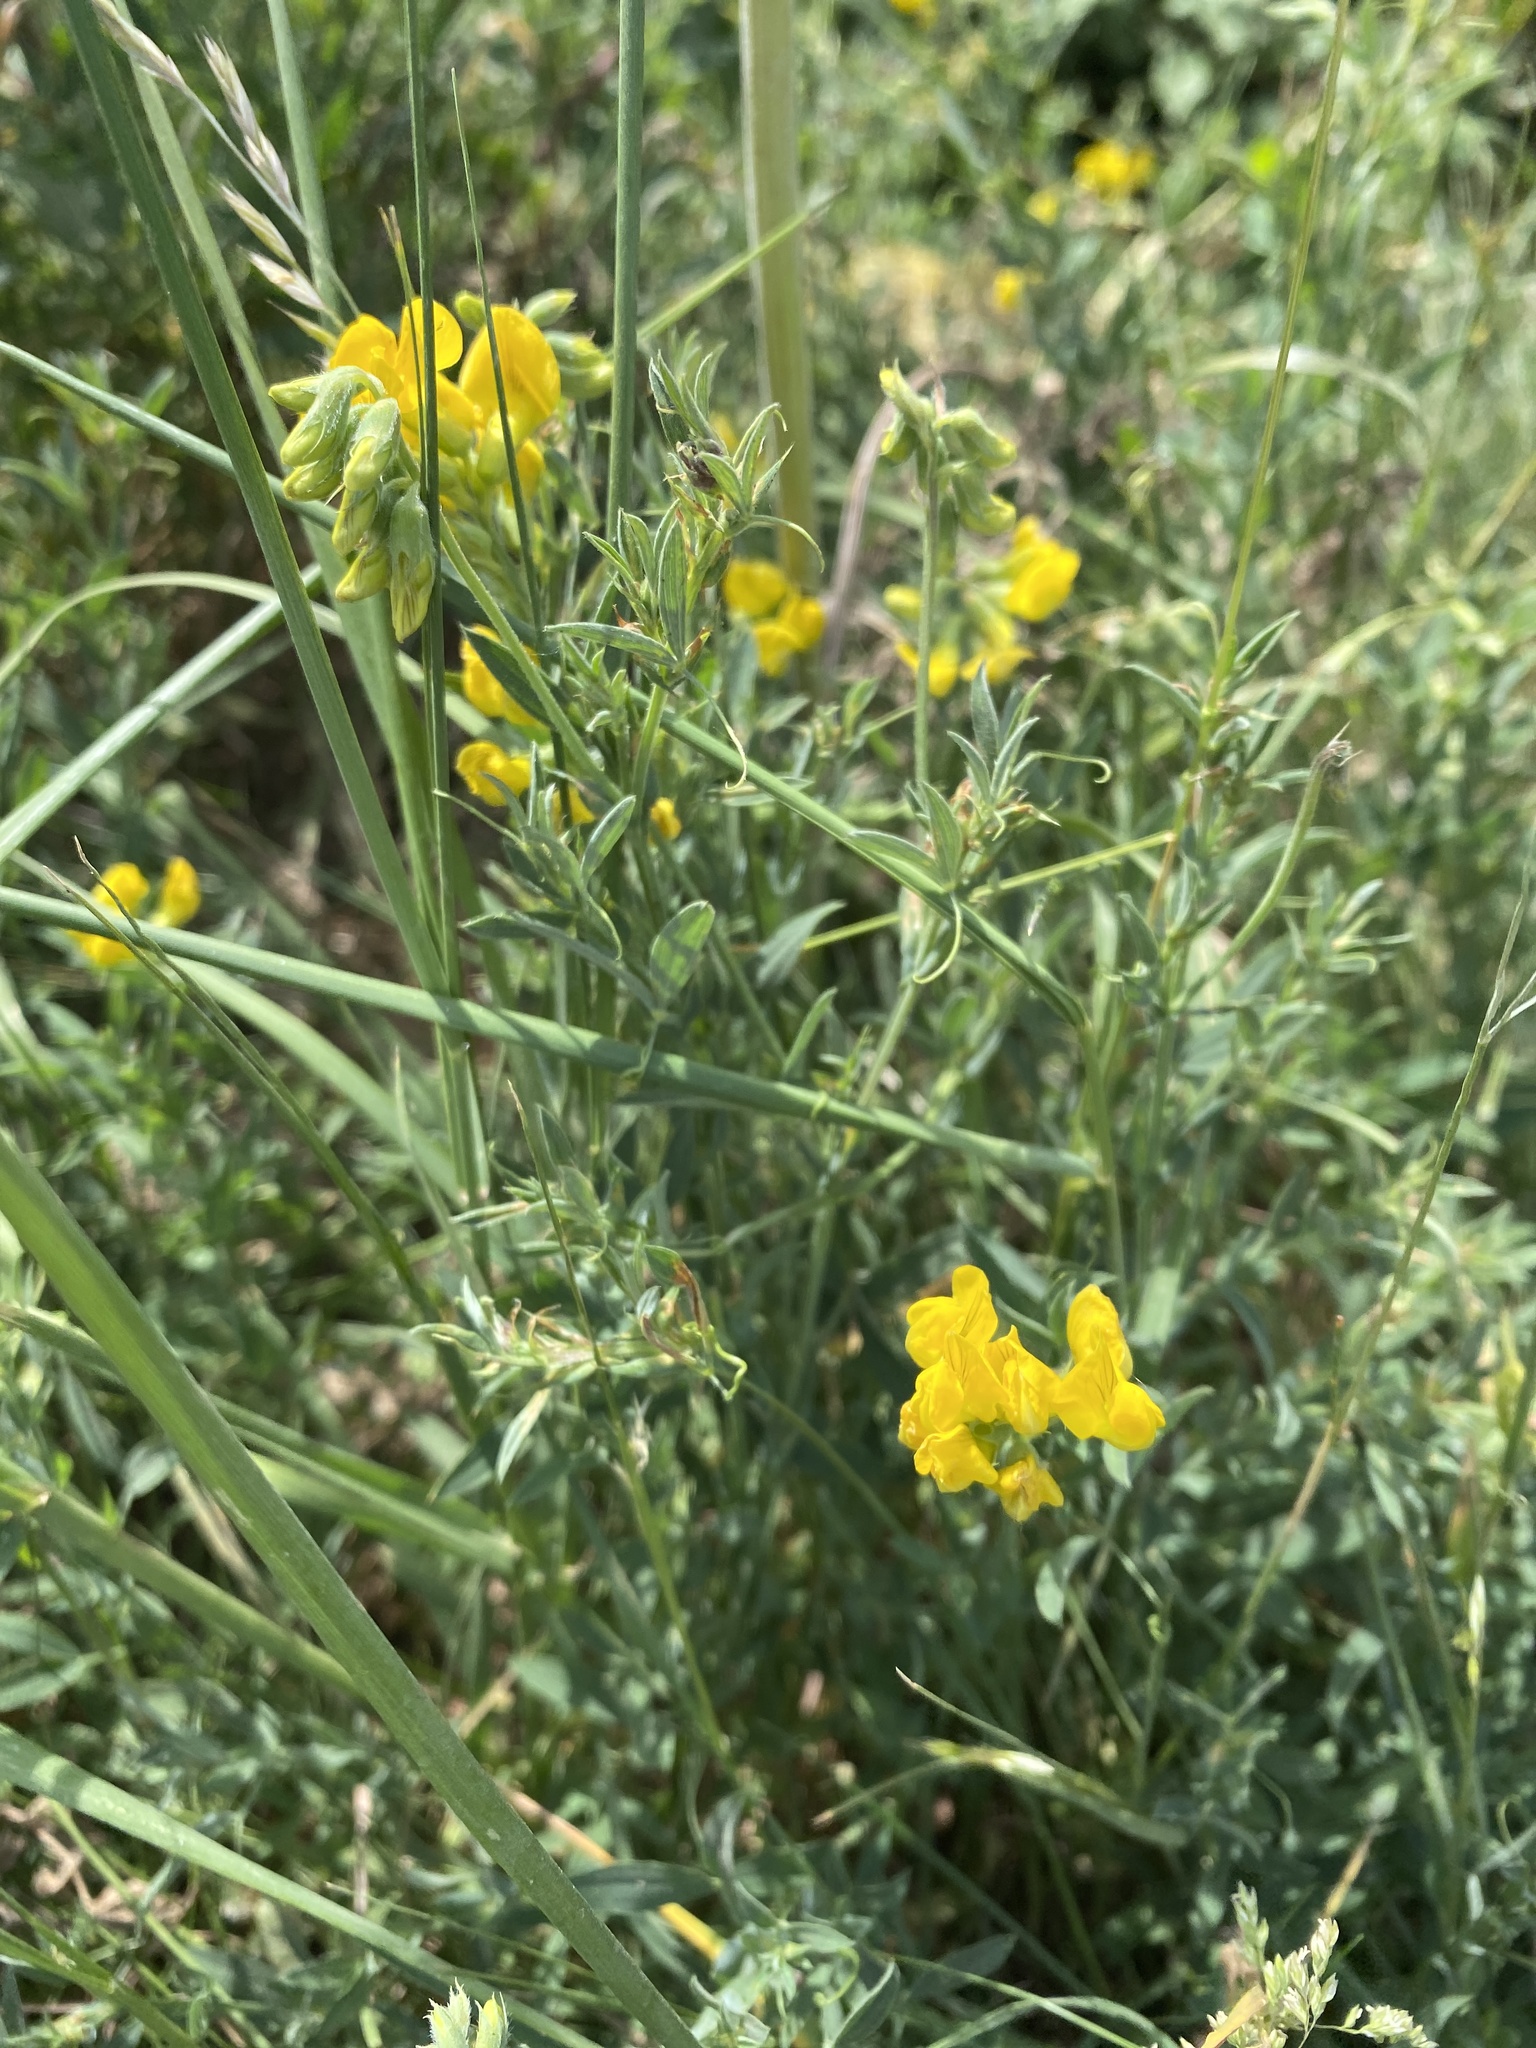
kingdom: Plantae
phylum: Tracheophyta
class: Magnoliopsida
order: Fabales
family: Fabaceae
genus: Lathyrus
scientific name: Lathyrus pratensis
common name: Meadow vetchling
